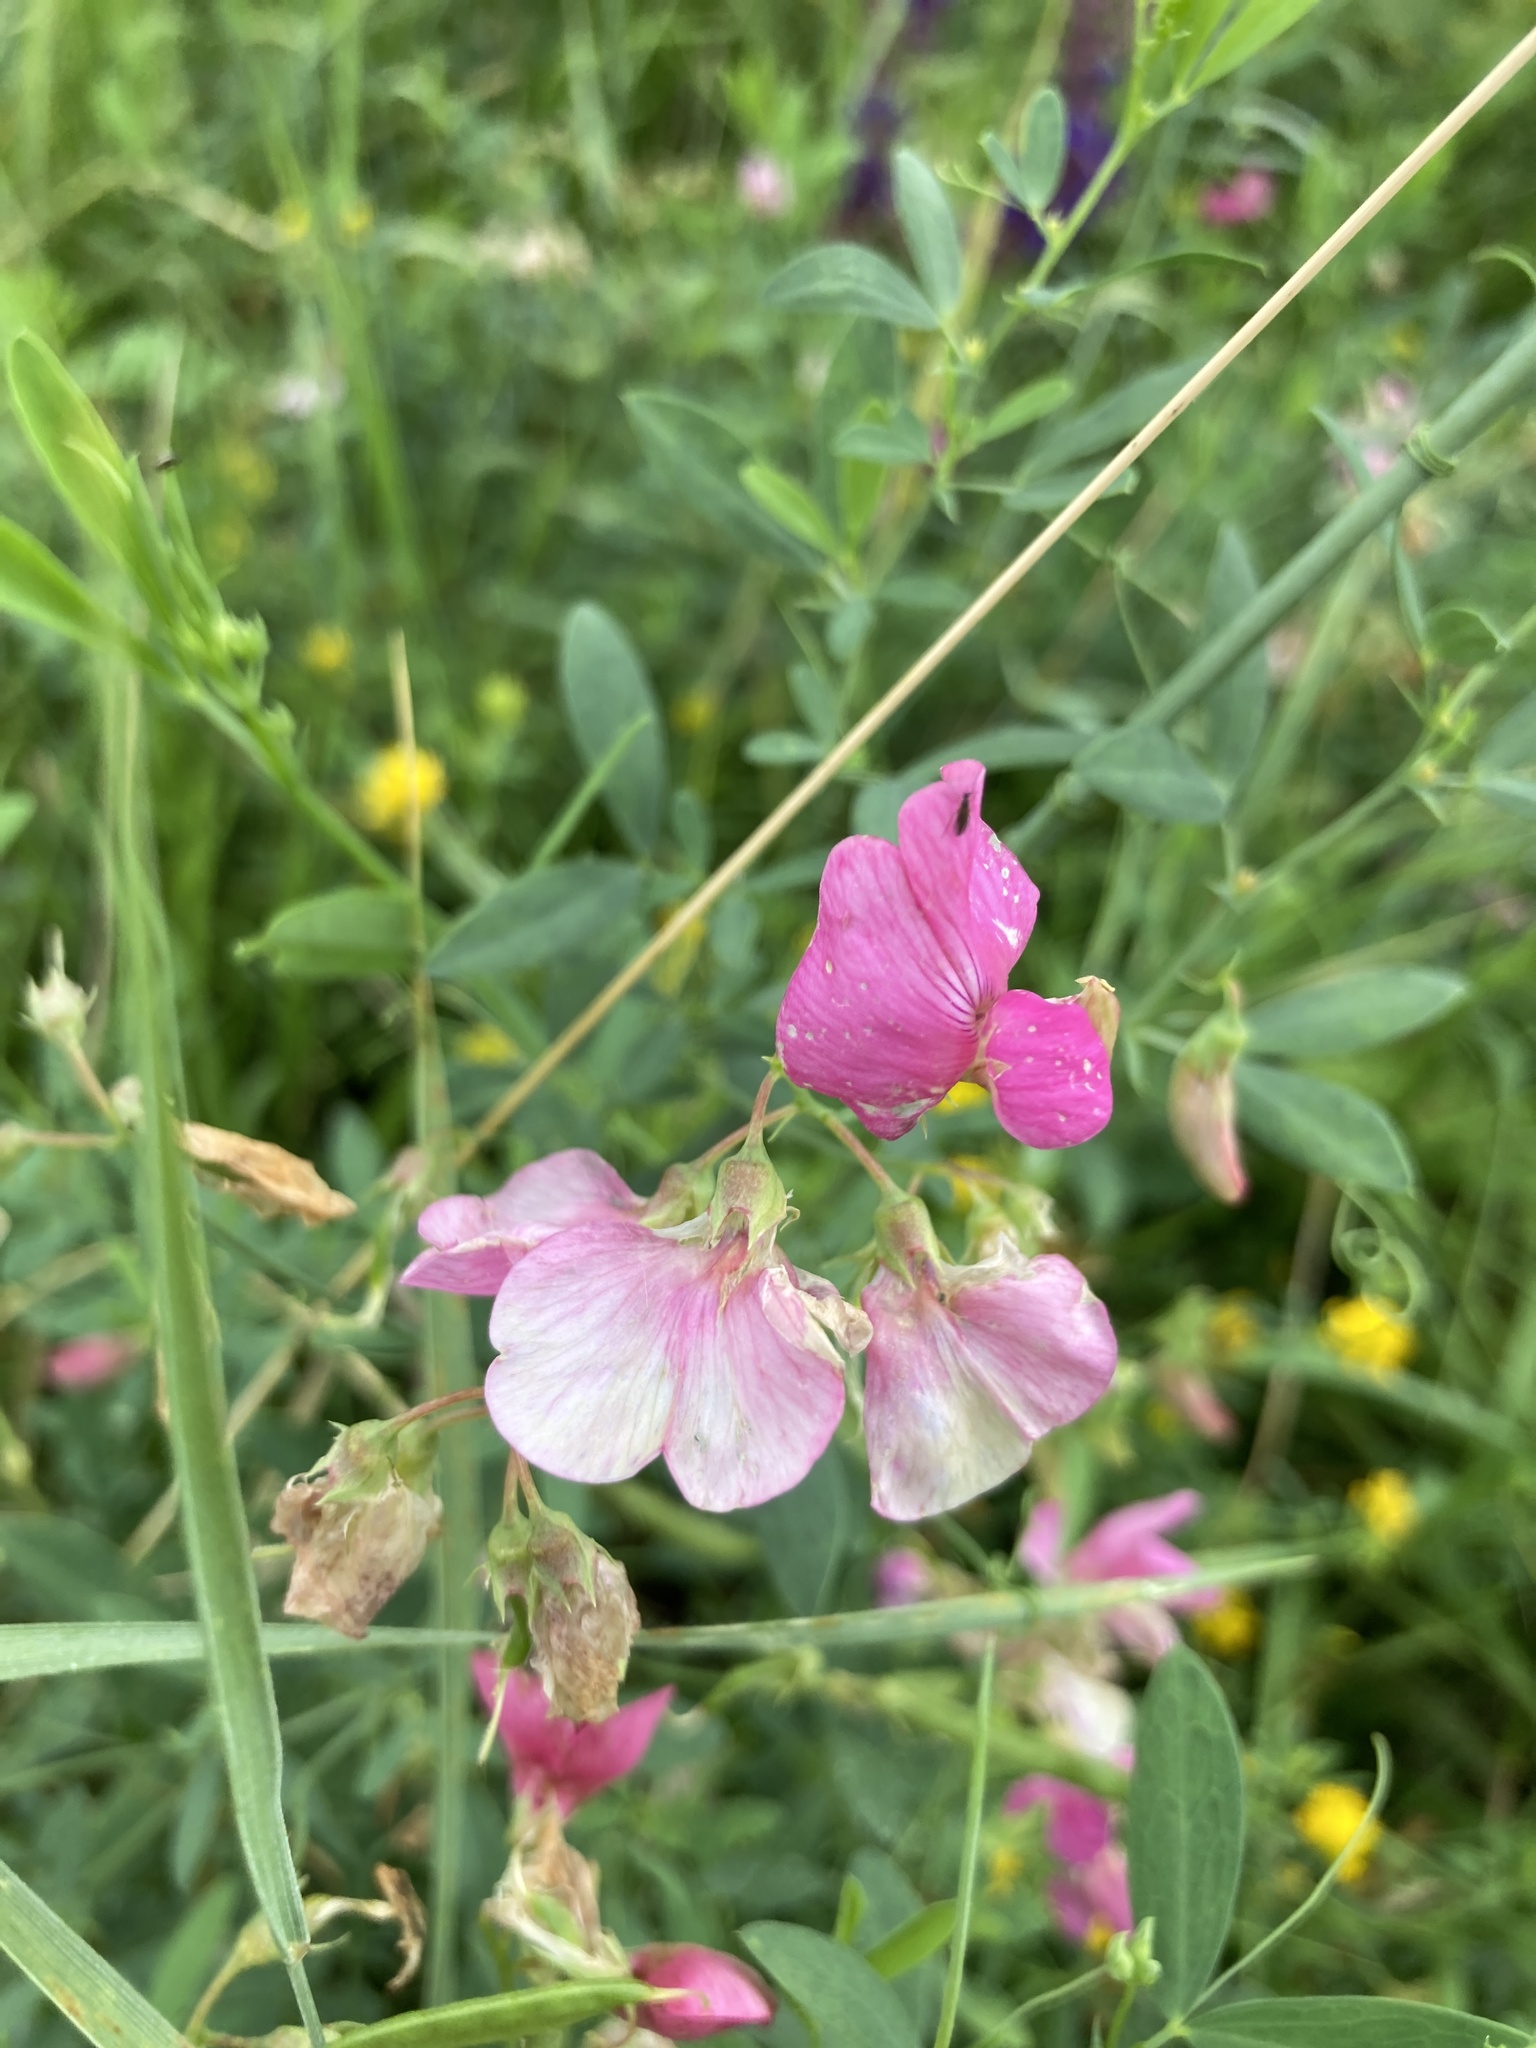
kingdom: Plantae
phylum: Tracheophyta
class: Magnoliopsida
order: Fabales
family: Fabaceae
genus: Lathyrus
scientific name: Lathyrus tuberosus
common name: Tuberous pea
